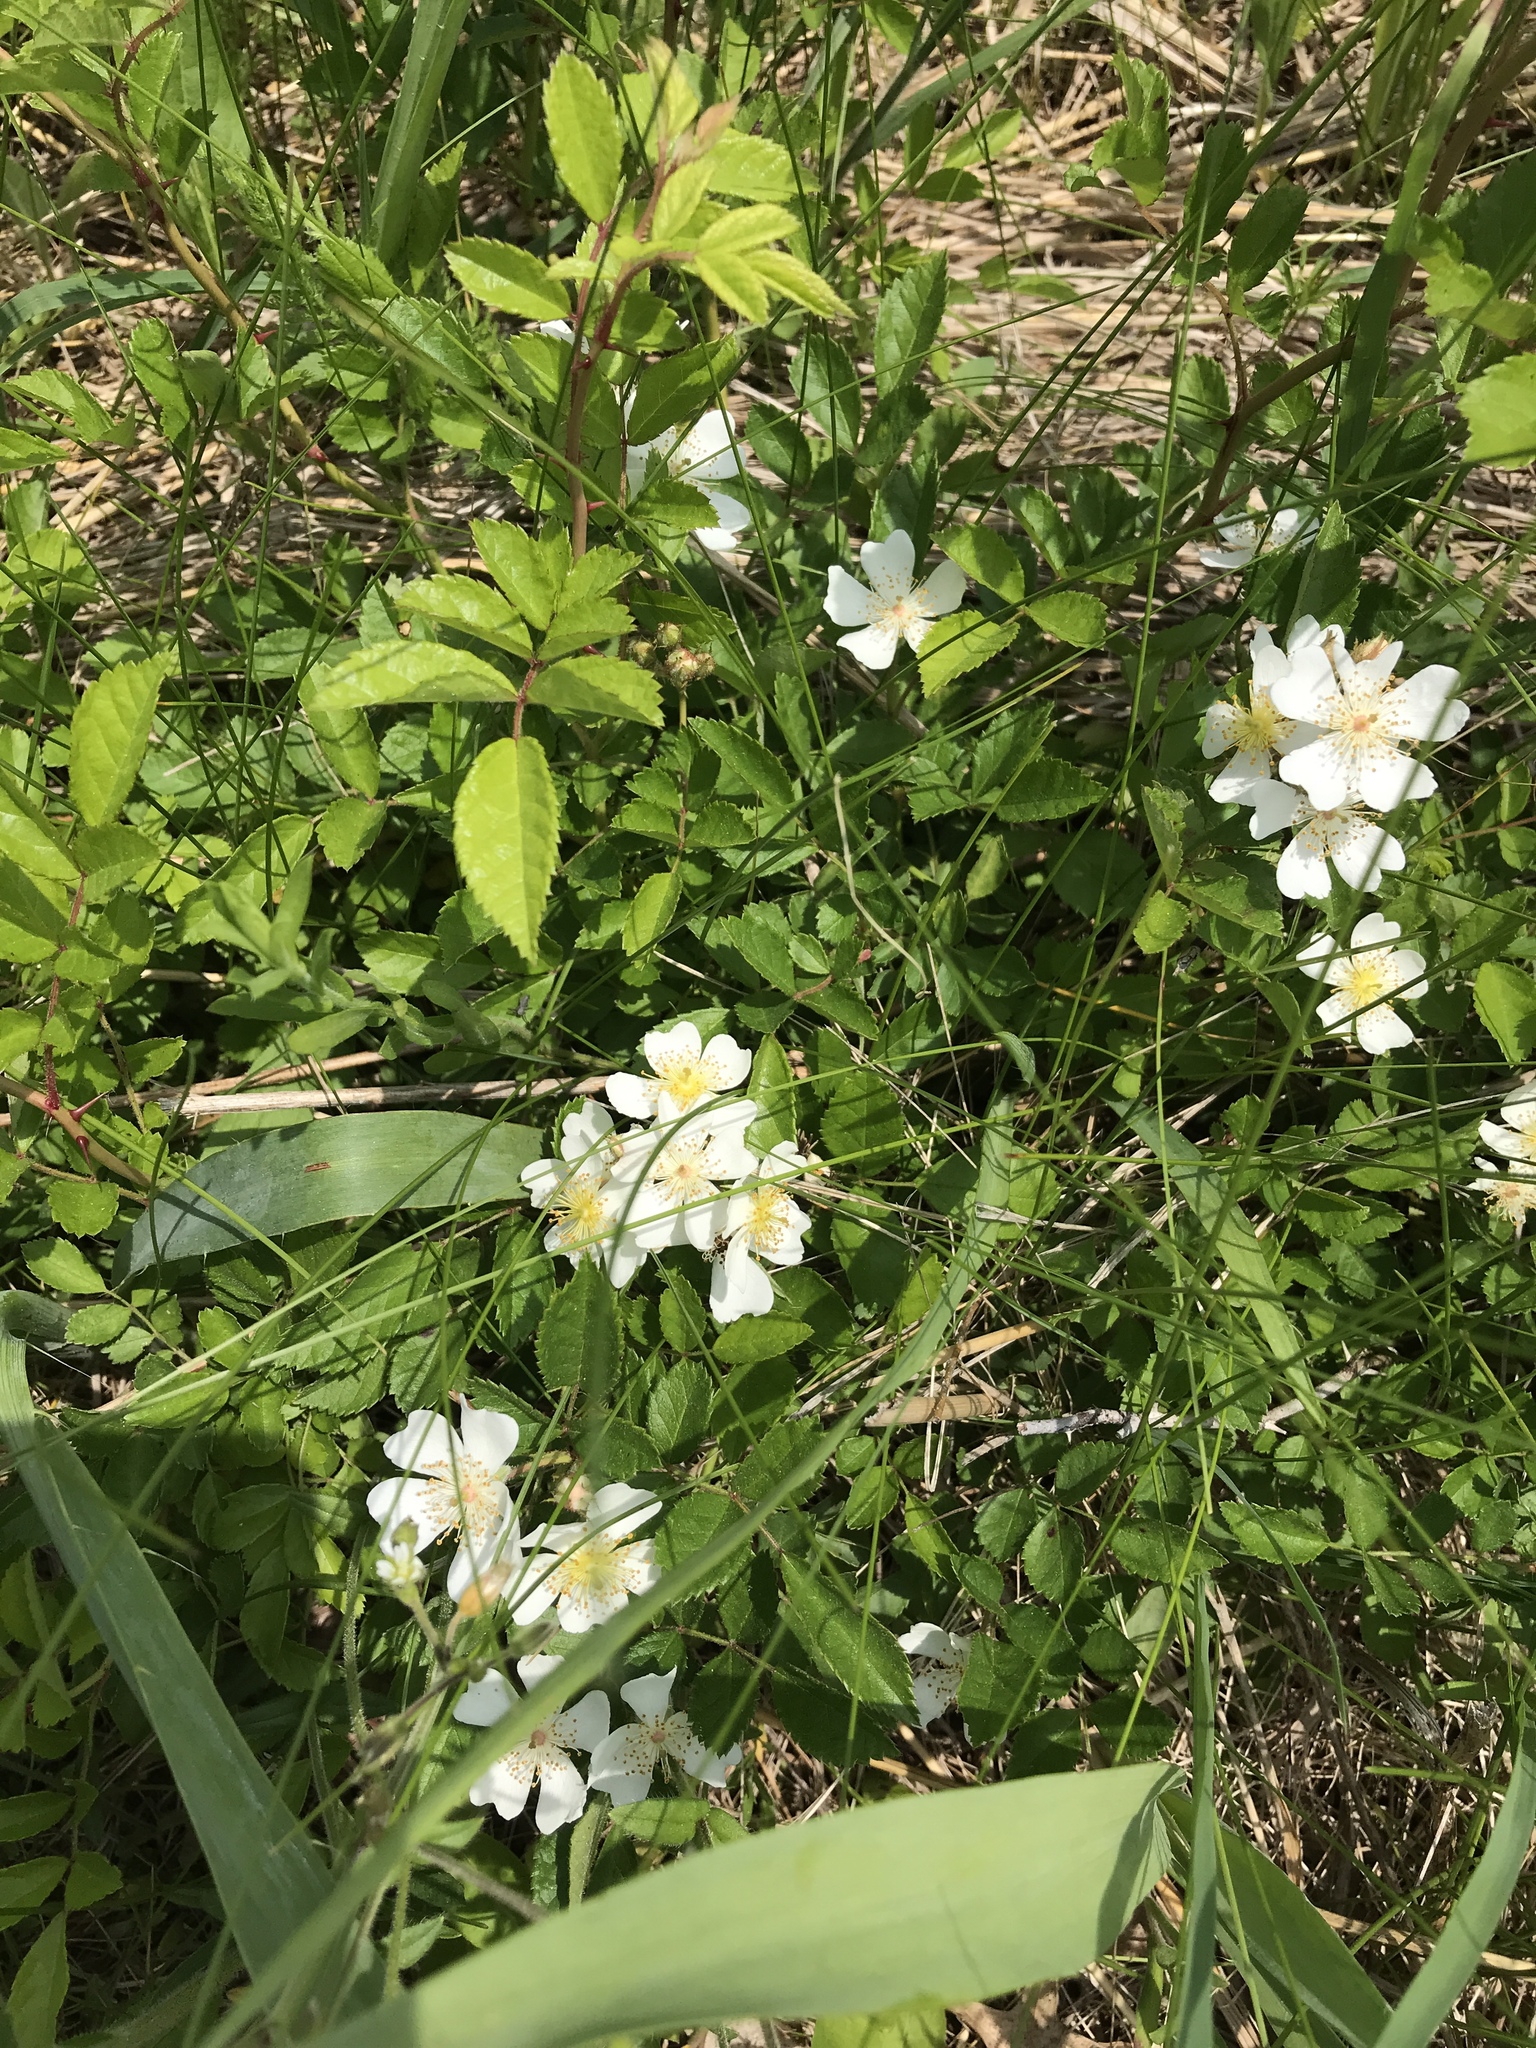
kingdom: Plantae
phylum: Tracheophyta
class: Magnoliopsida
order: Rosales
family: Rosaceae
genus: Rosa
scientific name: Rosa multiflora
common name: Multiflora rose
